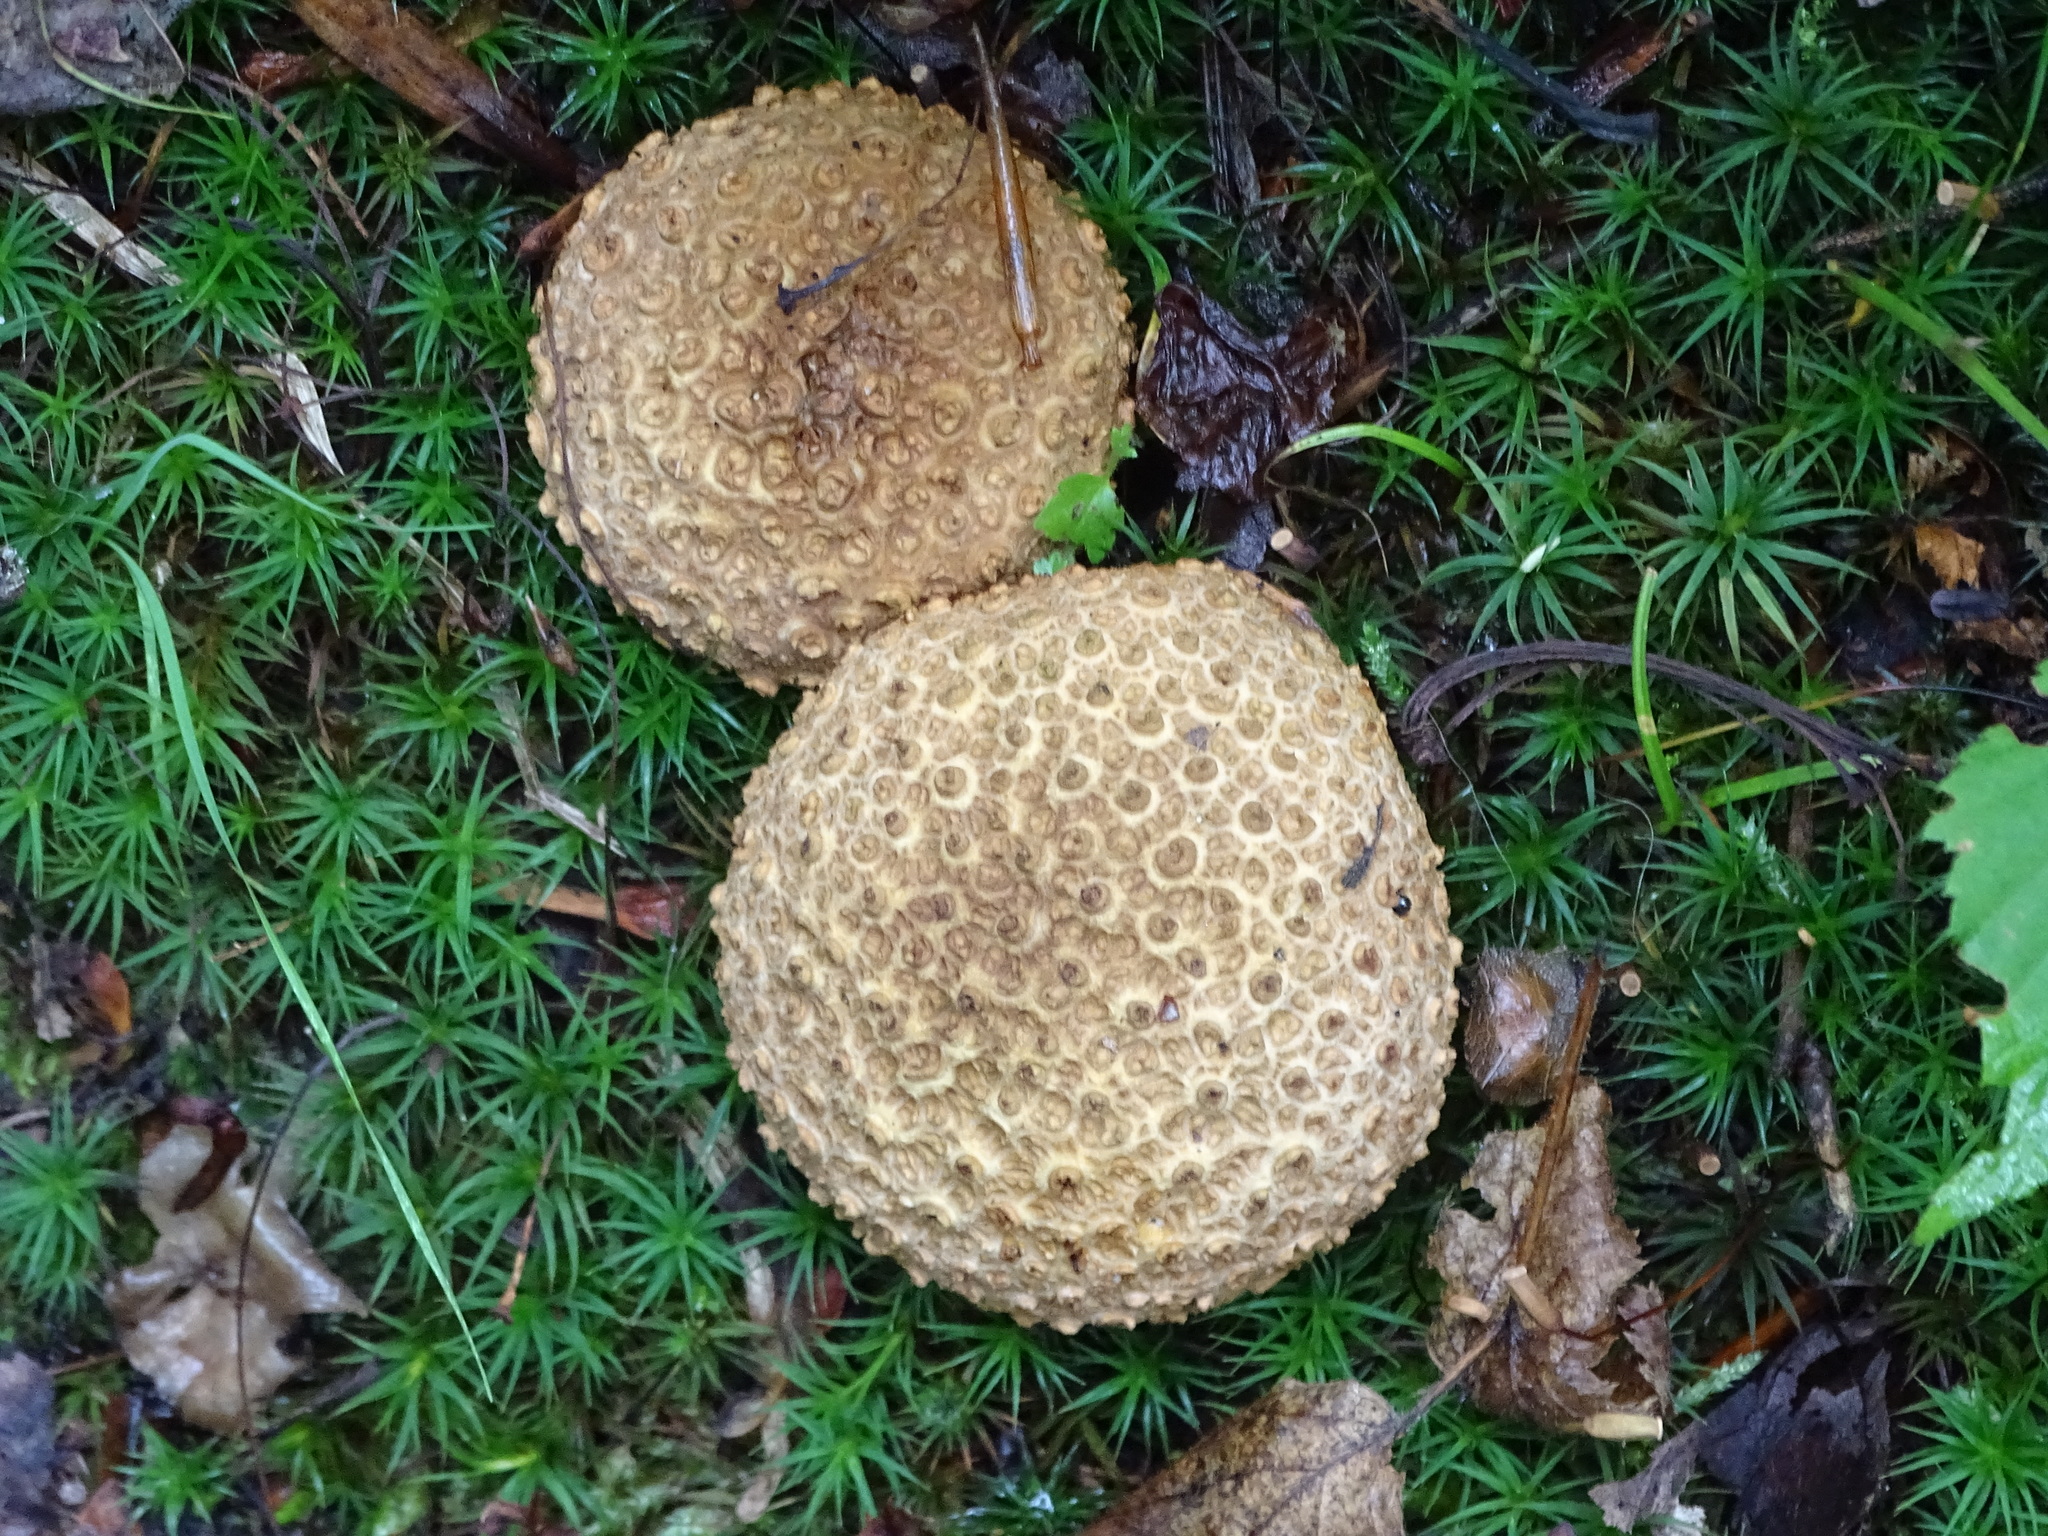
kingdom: Fungi
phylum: Basidiomycota
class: Agaricomycetes
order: Boletales
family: Sclerodermataceae
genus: Scleroderma
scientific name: Scleroderma citrinum
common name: Common earthball
